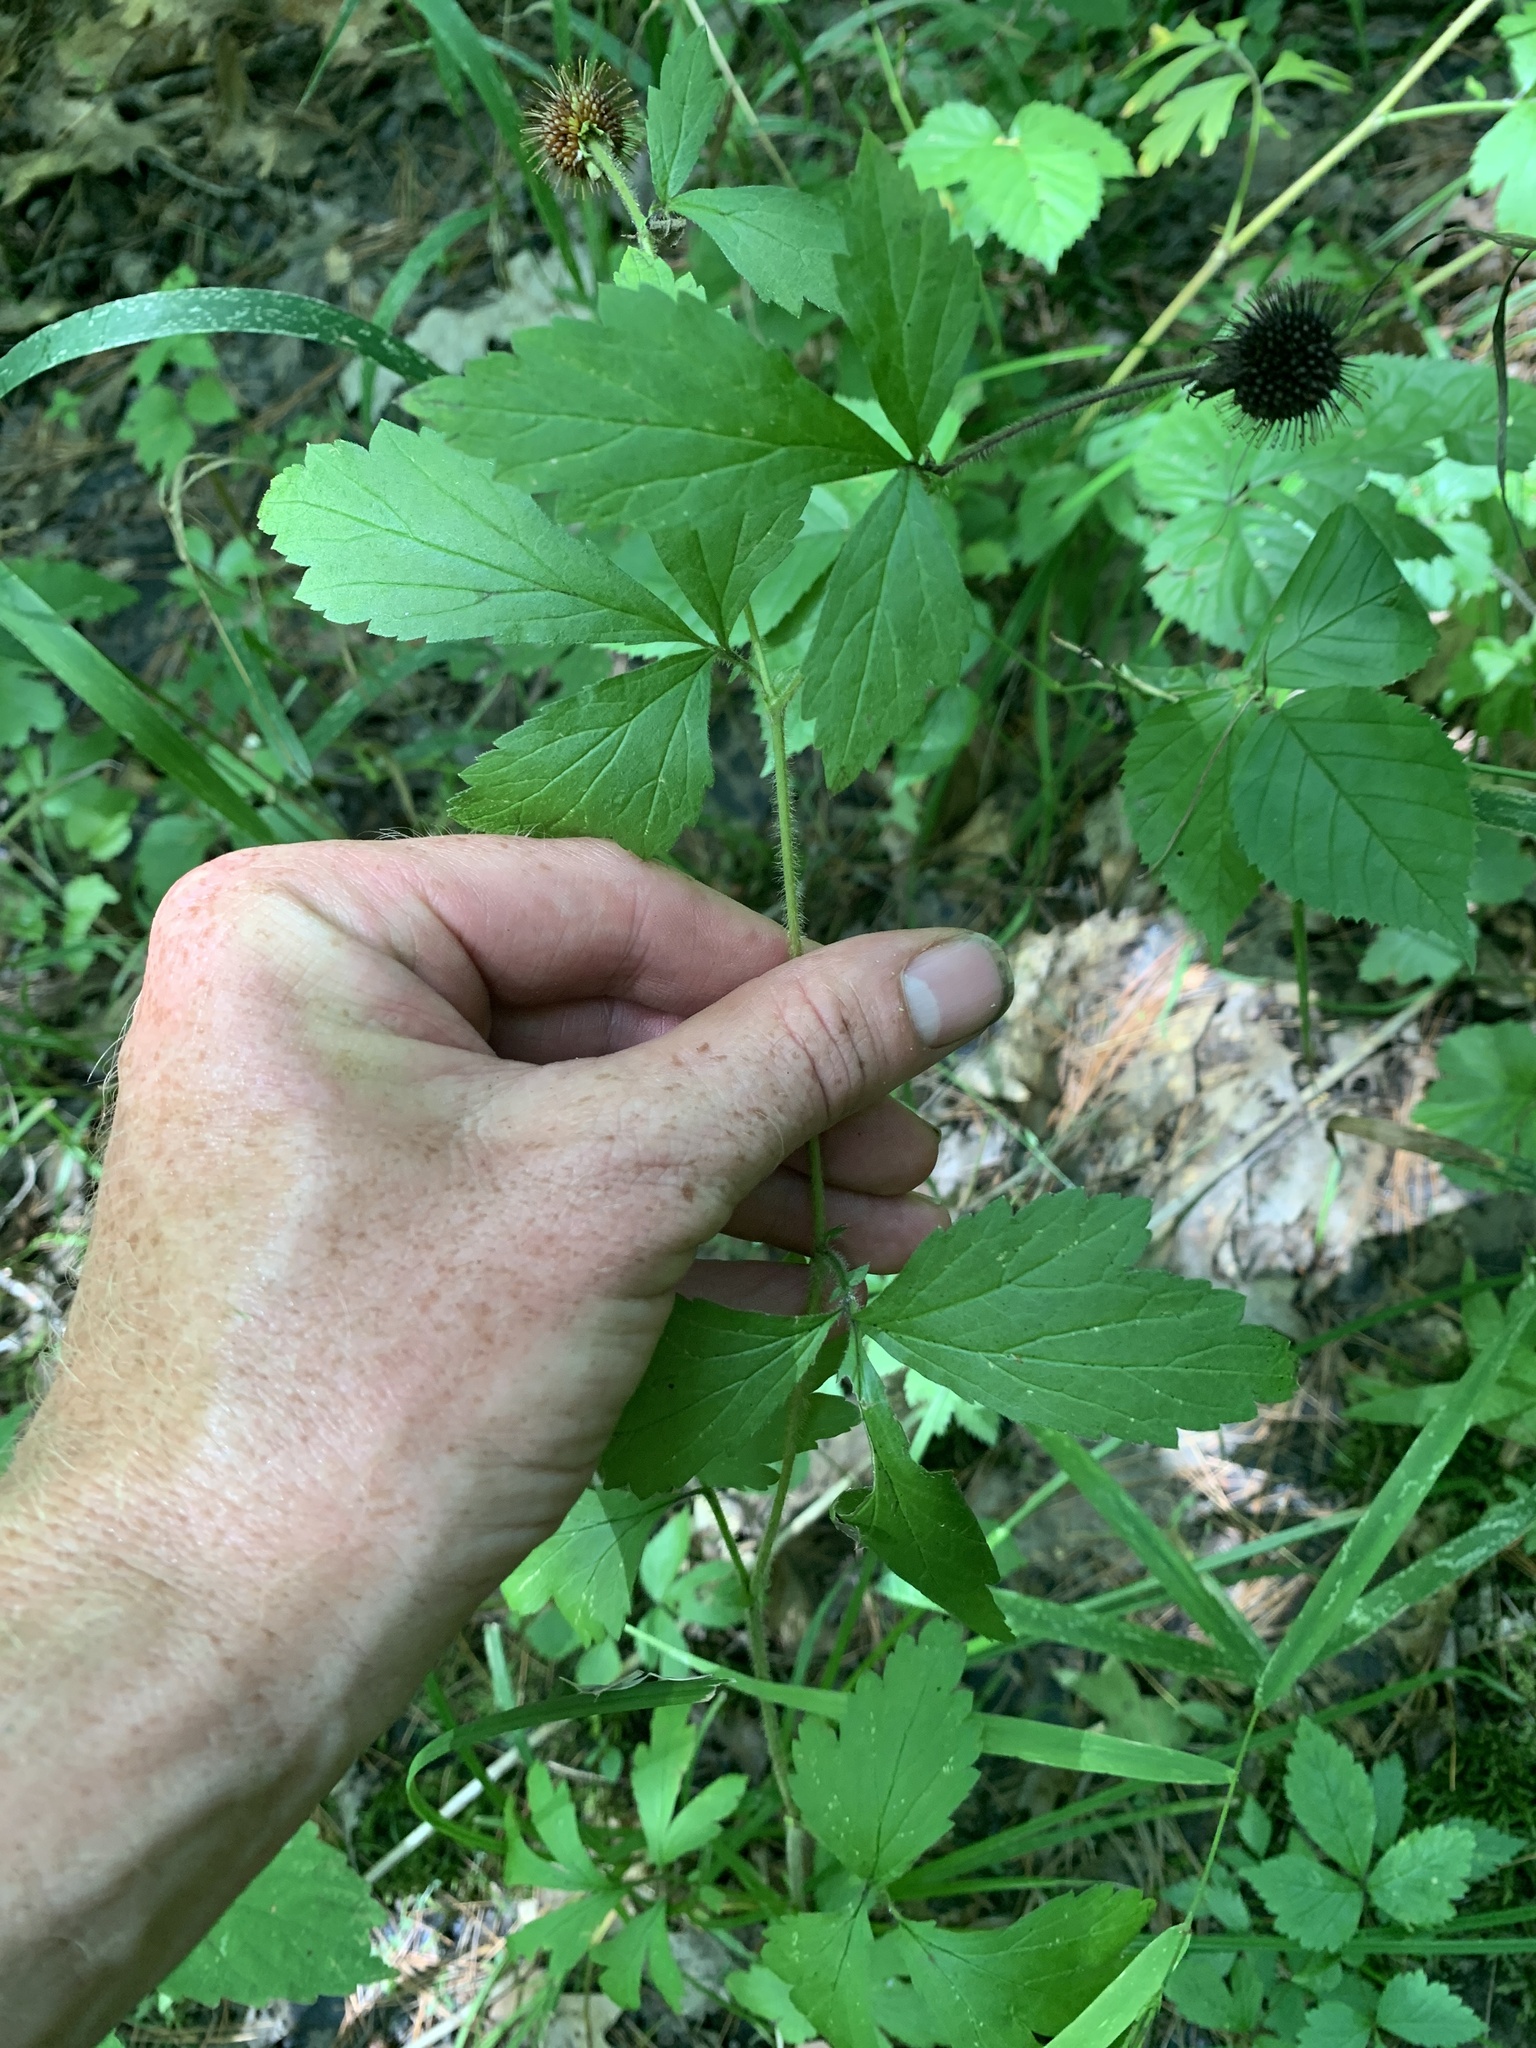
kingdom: Plantae
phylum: Tracheophyta
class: Magnoliopsida
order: Rosales
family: Rosaceae
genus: Geum
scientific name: Geum laciniatum
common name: Rough avens
